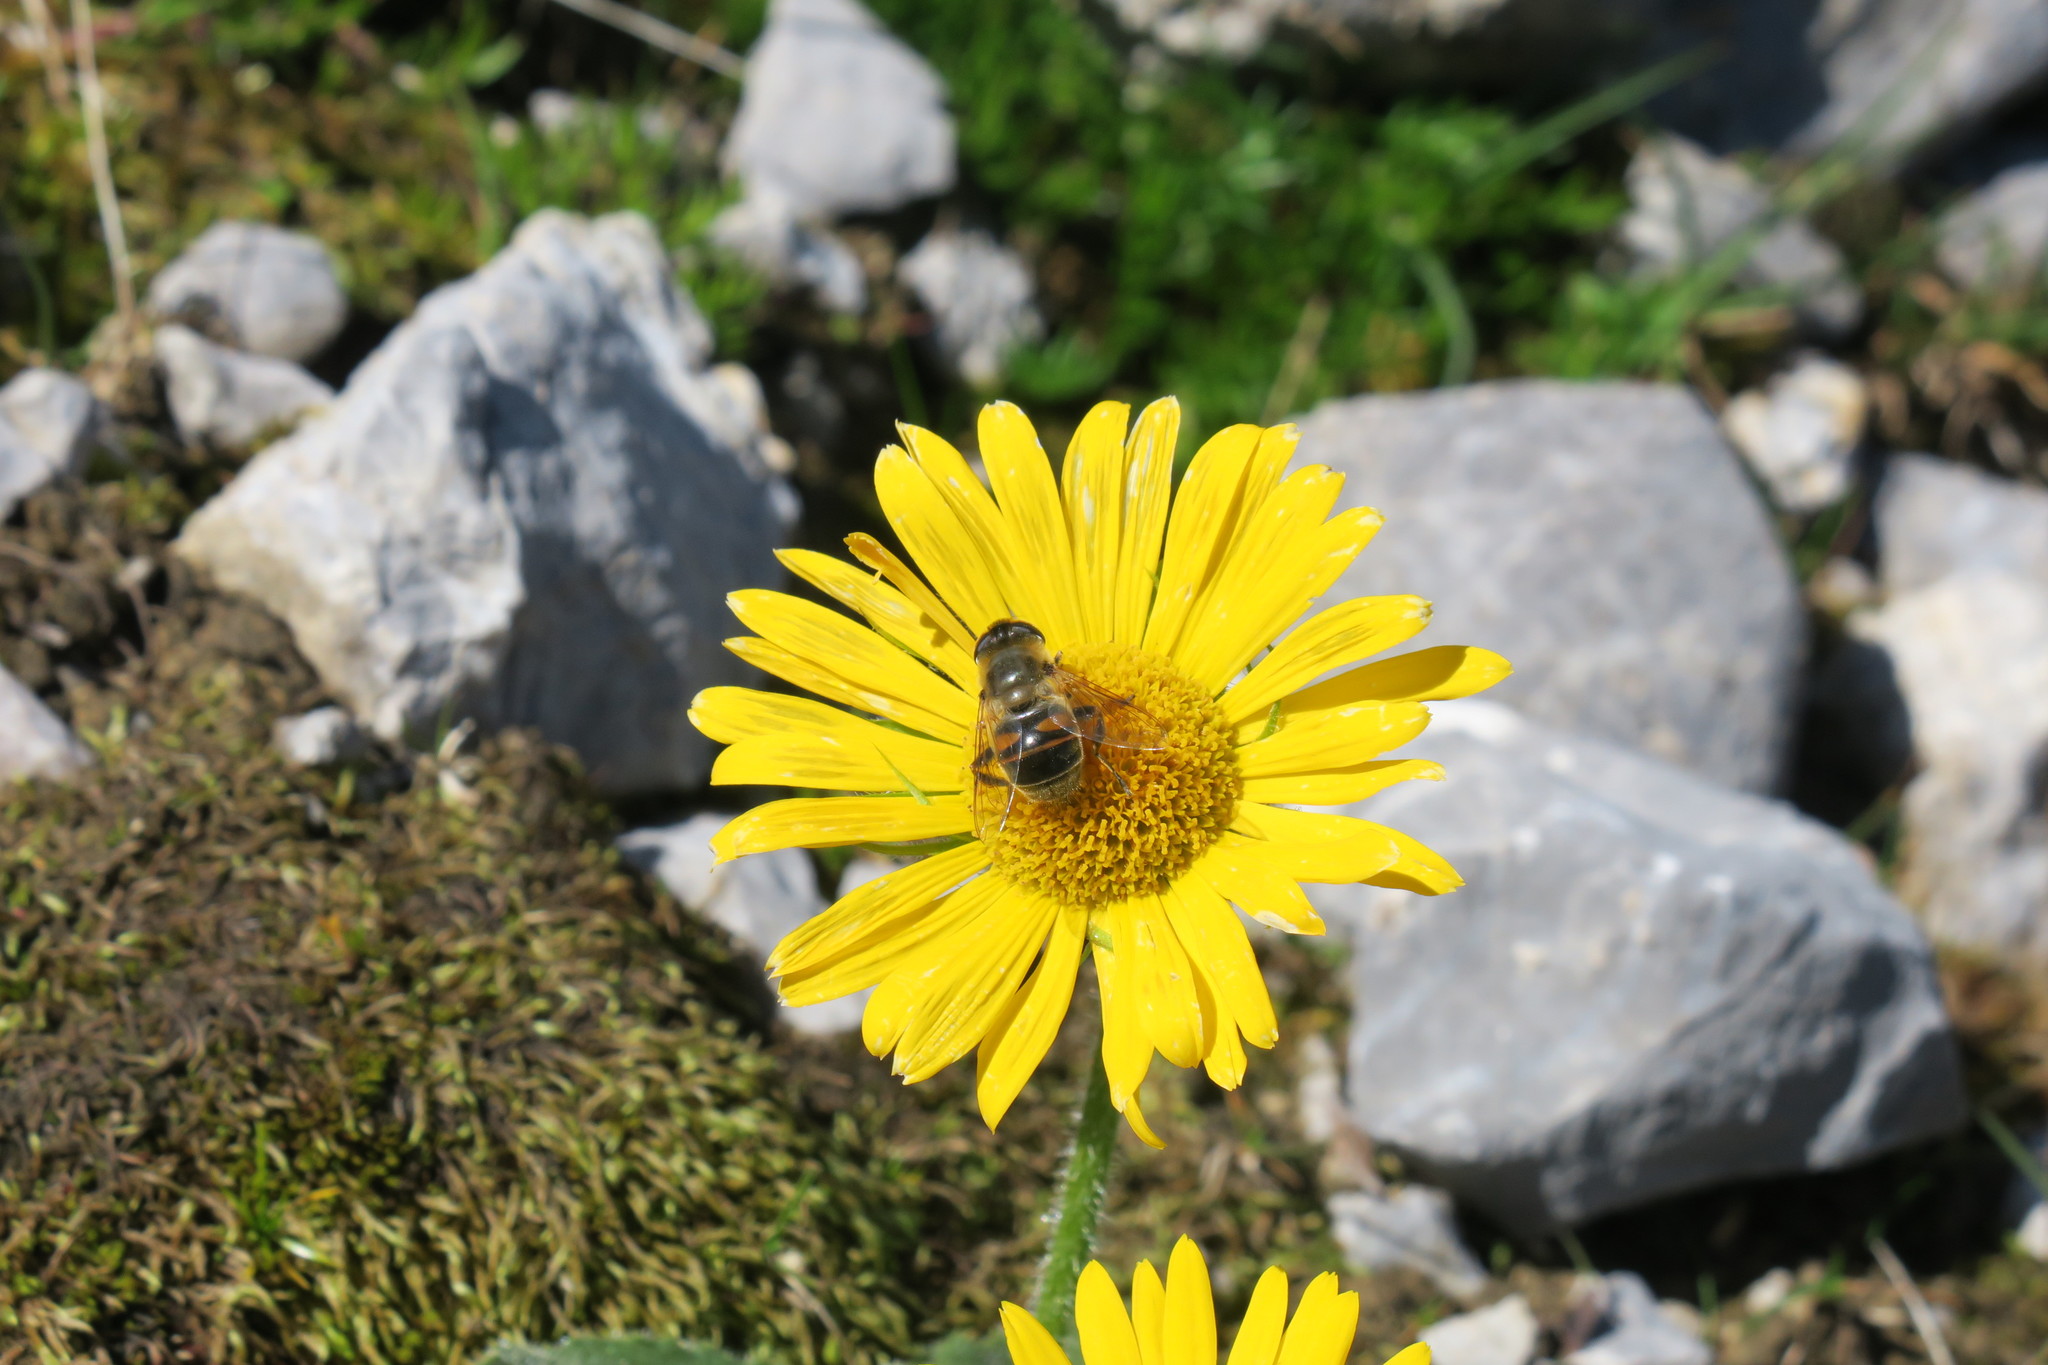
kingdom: Animalia
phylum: Arthropoda
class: Insecta
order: Diptera
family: Syrphidae
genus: Eristalis
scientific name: Eristalis tenax
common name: Drone fly
